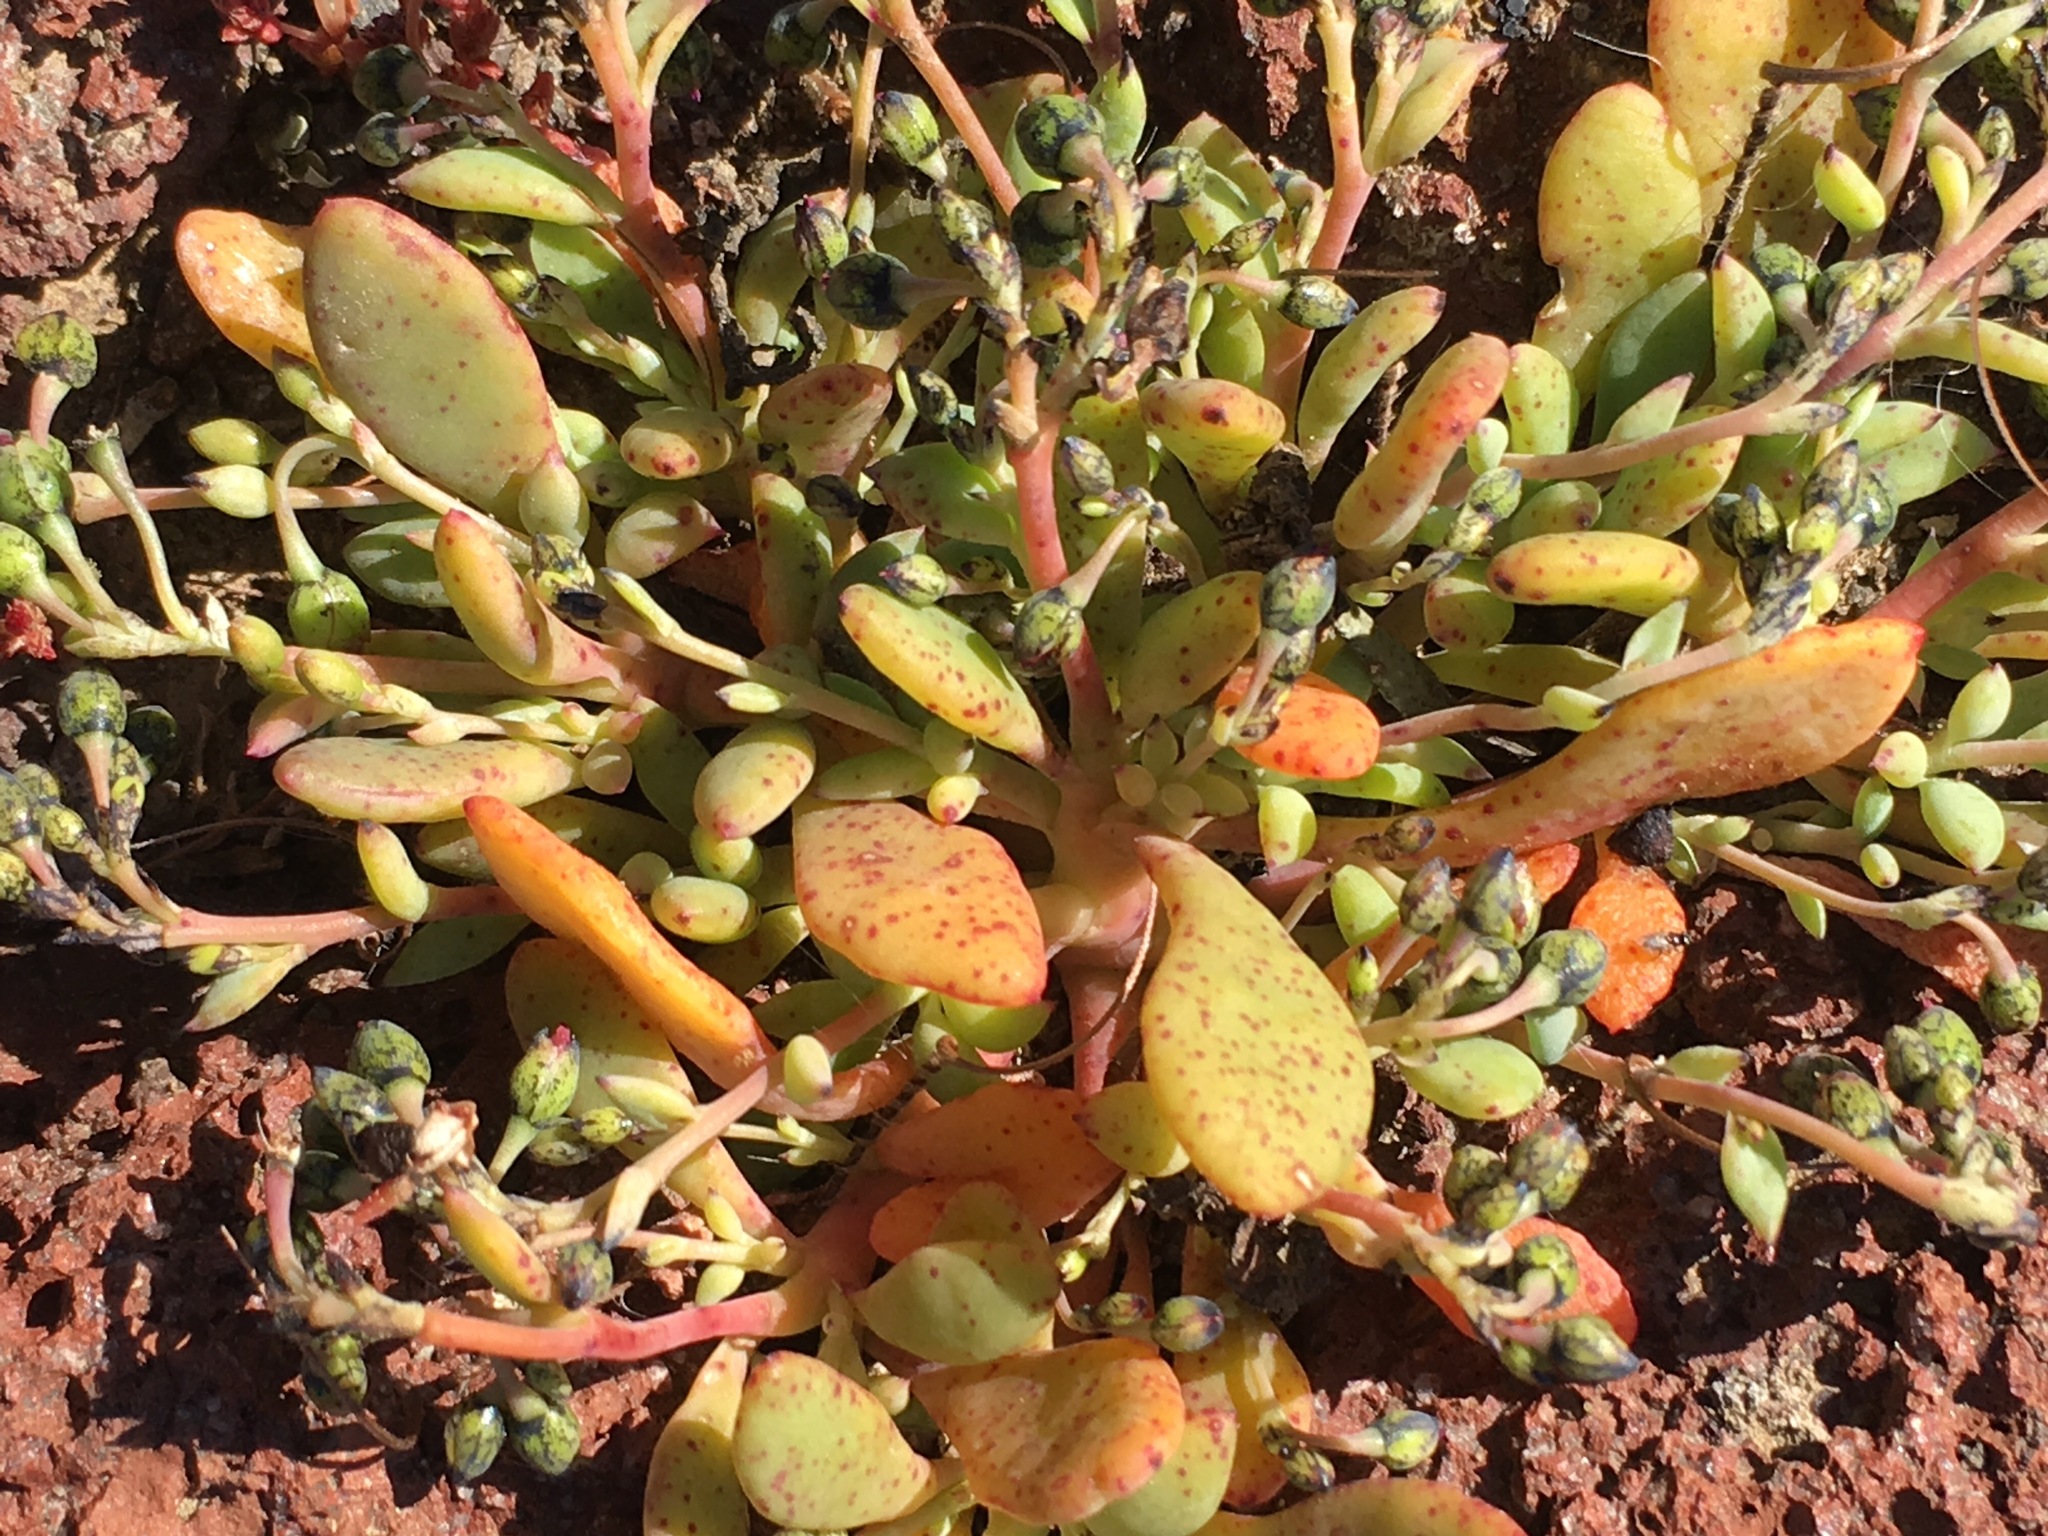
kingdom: Plantae
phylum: Tracheophyta
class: Magnoliopsida
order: Caryophyllales
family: Montiaceae
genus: Cistanthe
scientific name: Cistanthe maritima
